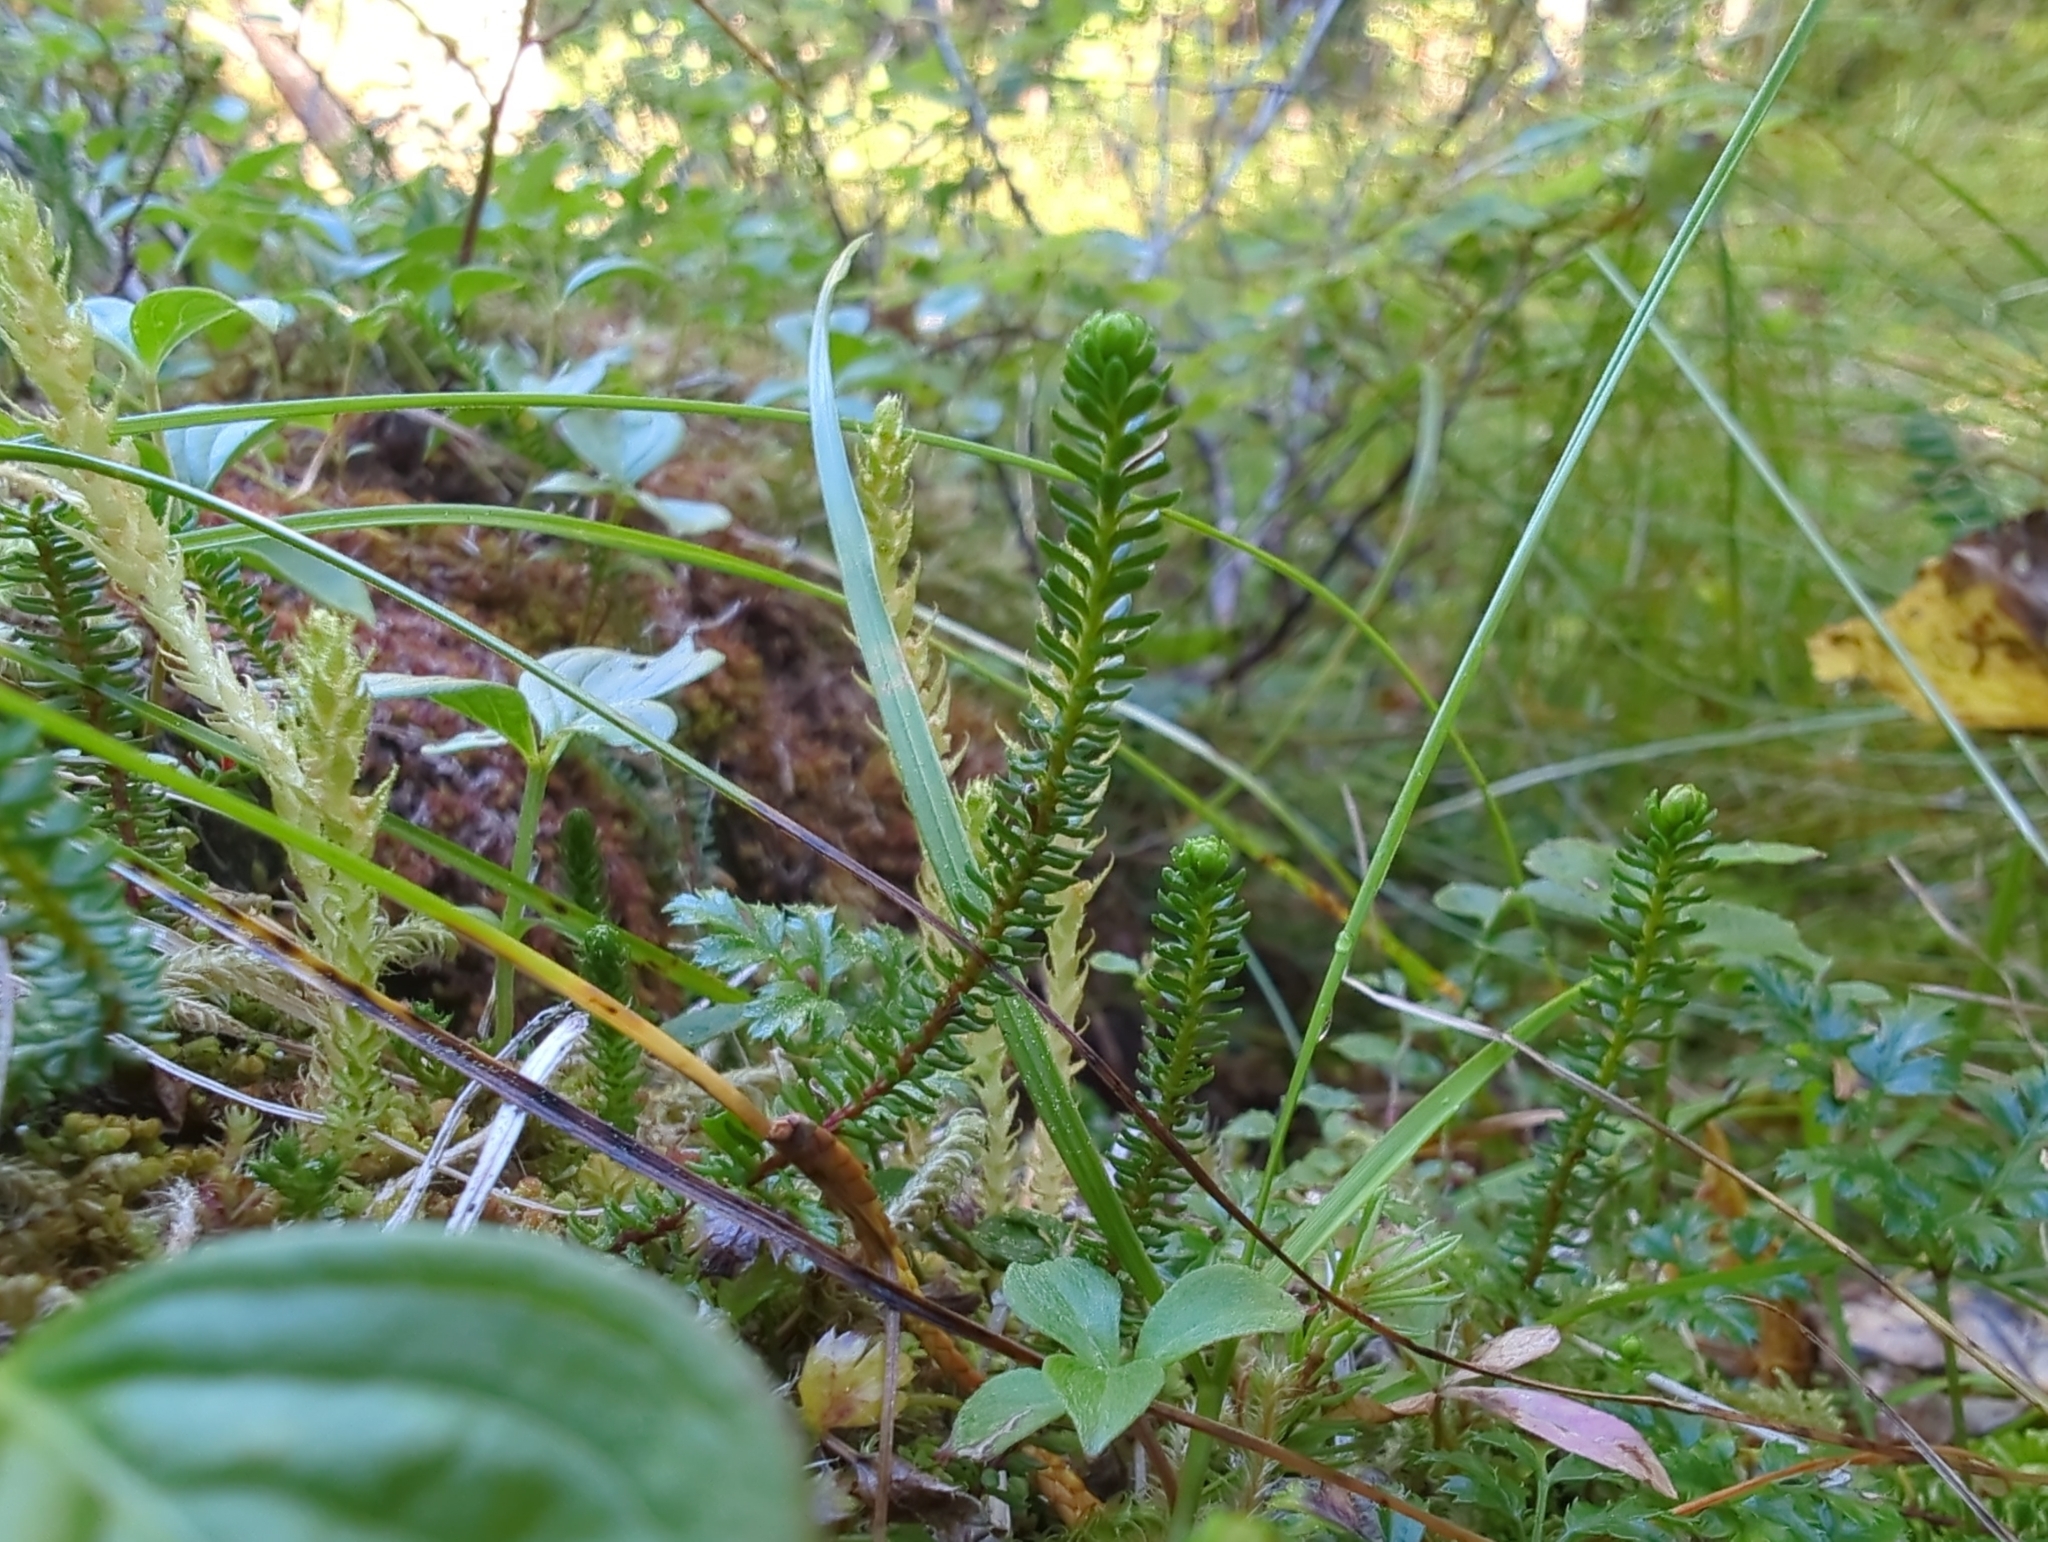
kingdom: Plantae
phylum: Tracheophyta
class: Lycopodiopsida
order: Selaginellales
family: Selaginellaceae
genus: Selaginella
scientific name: Selaginella selaginoides
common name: Prickly mountain-moss
